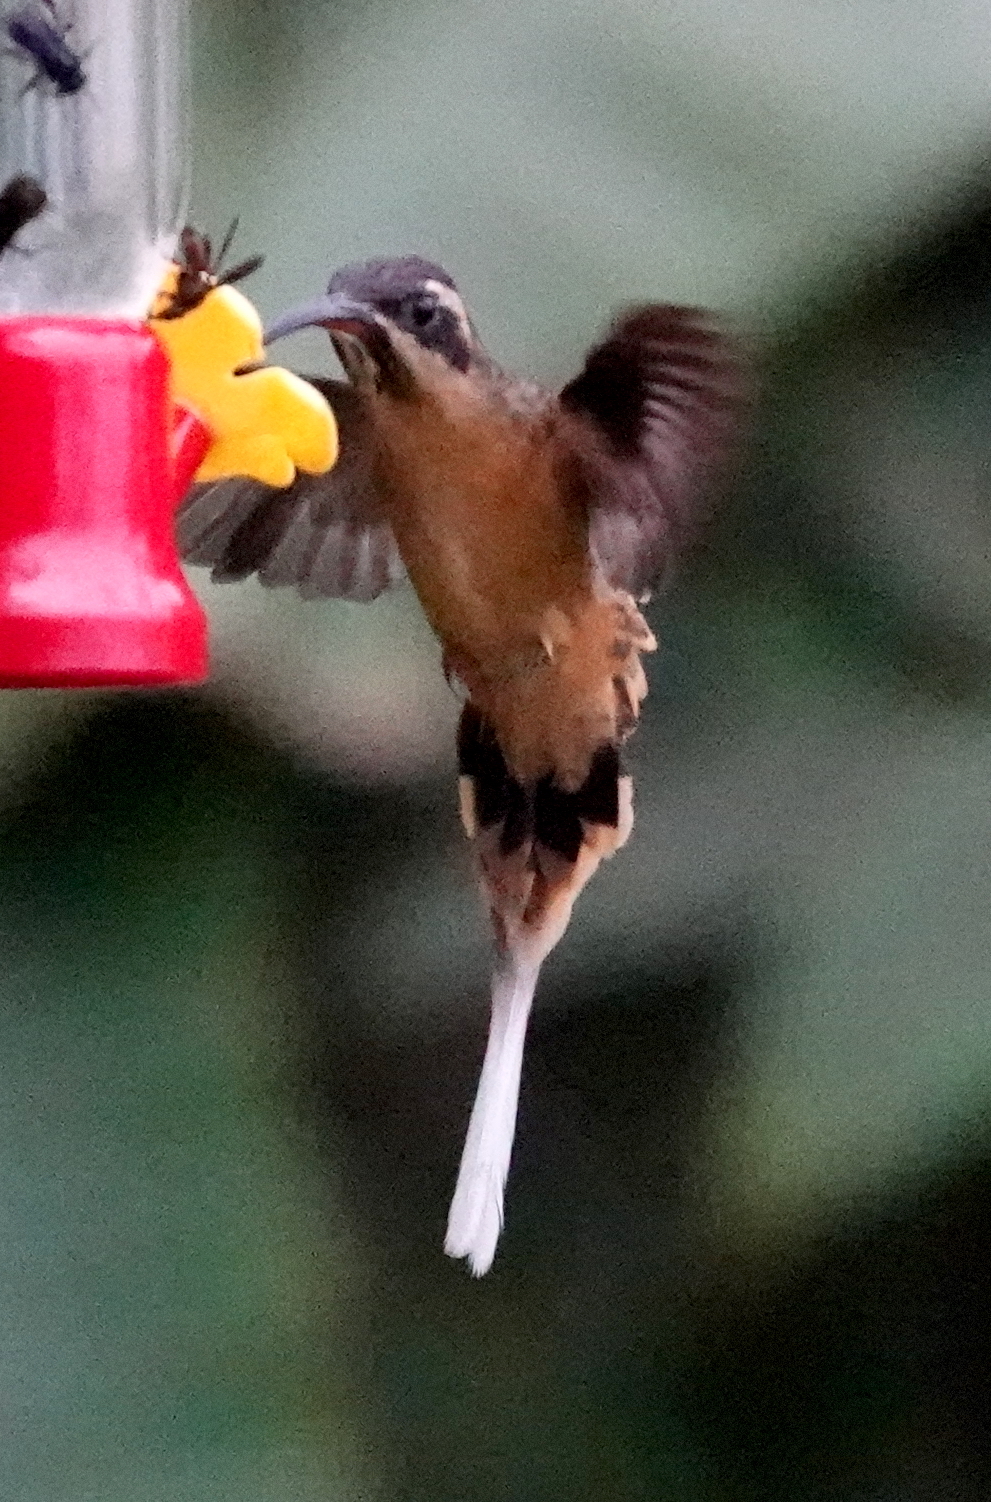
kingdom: Animalia
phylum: Chordata
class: Aves
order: Apodiformes
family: Trochilidae
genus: Phaethornis
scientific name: Phaethornis syrmatophorus
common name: Tawny-bellied hermit
